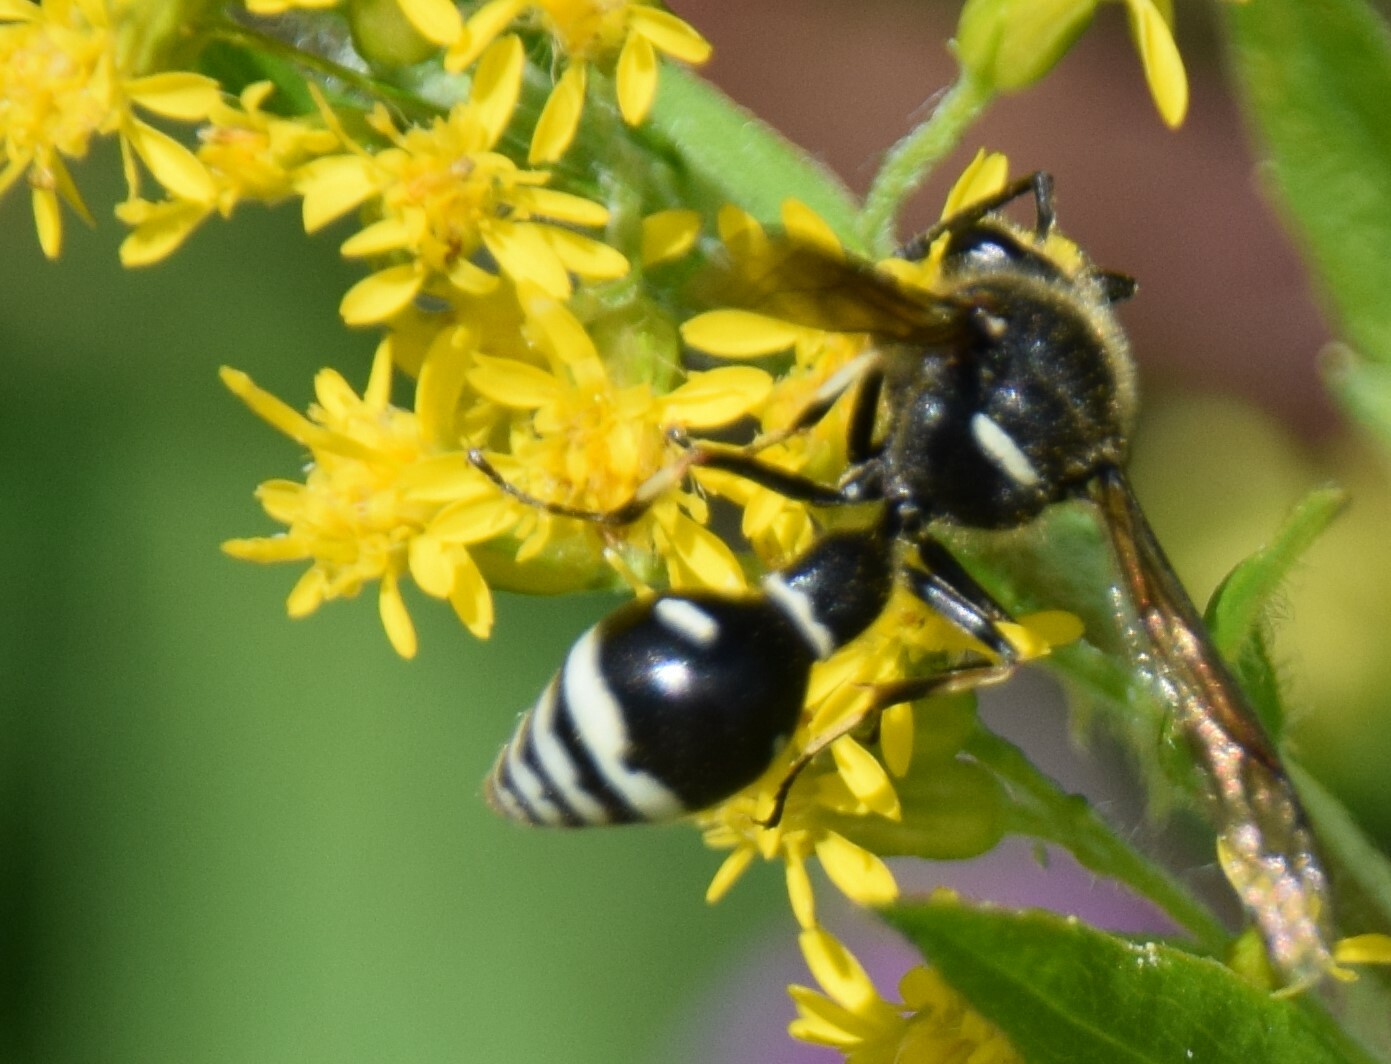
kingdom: Animalia
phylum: Arthropoda
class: Insecta
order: Hymenoptera
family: Vespidae
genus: Eumenes
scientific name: Eumenes crucifera
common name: Cross potter wasp
